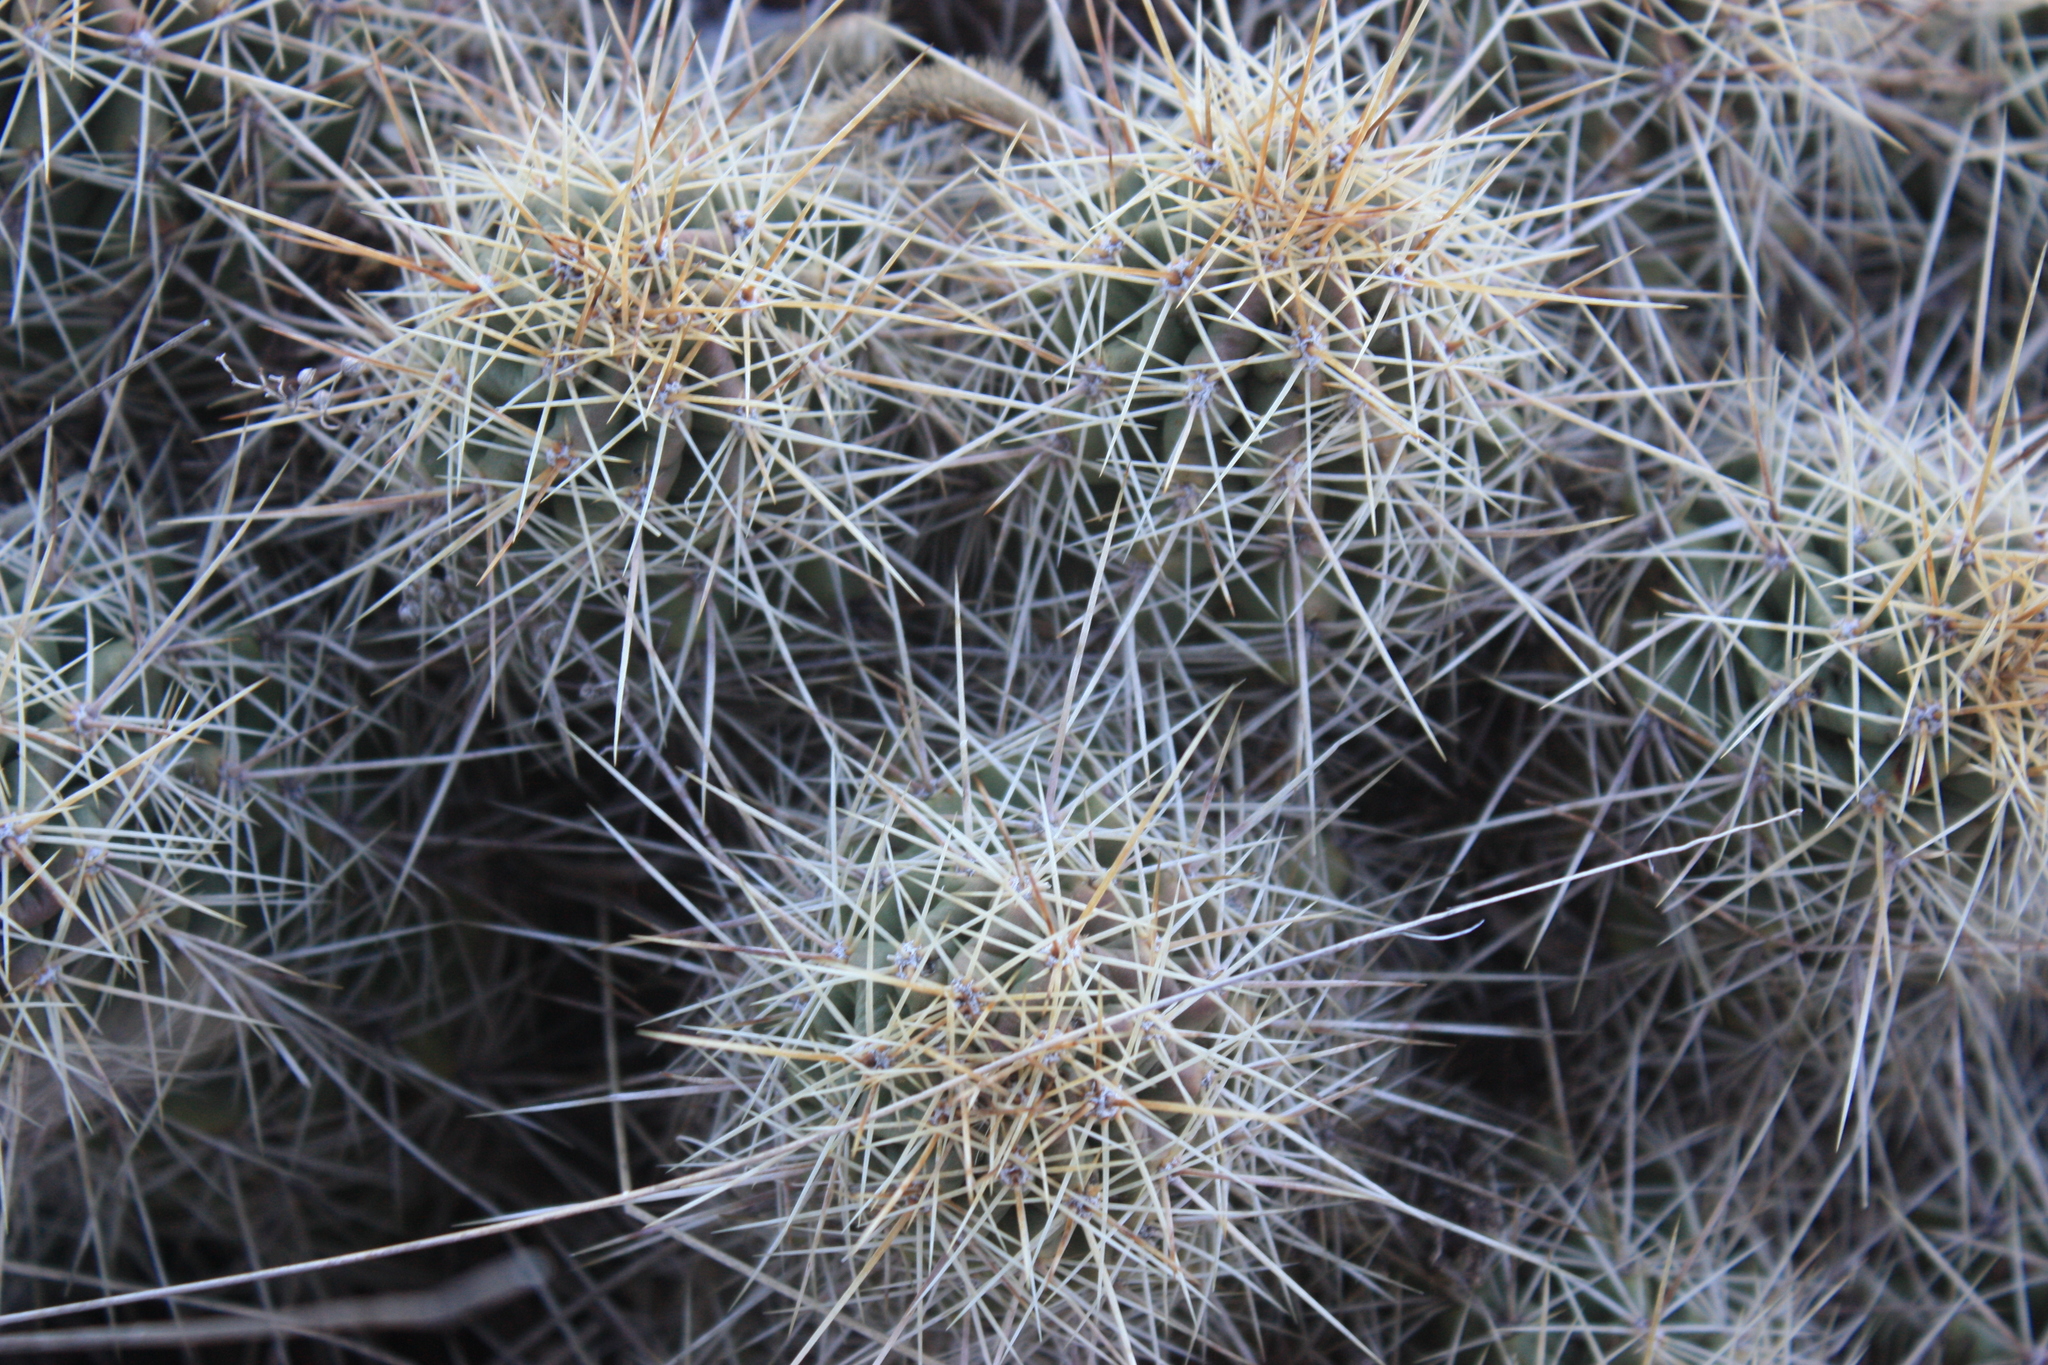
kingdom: Plantae
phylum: Tracheophyta
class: Magnoliopsida
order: Caryophyllales
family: Cactaceae
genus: Echinocereus
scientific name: Echinocereus coccineus
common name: Scarlet hedgehog cactus
